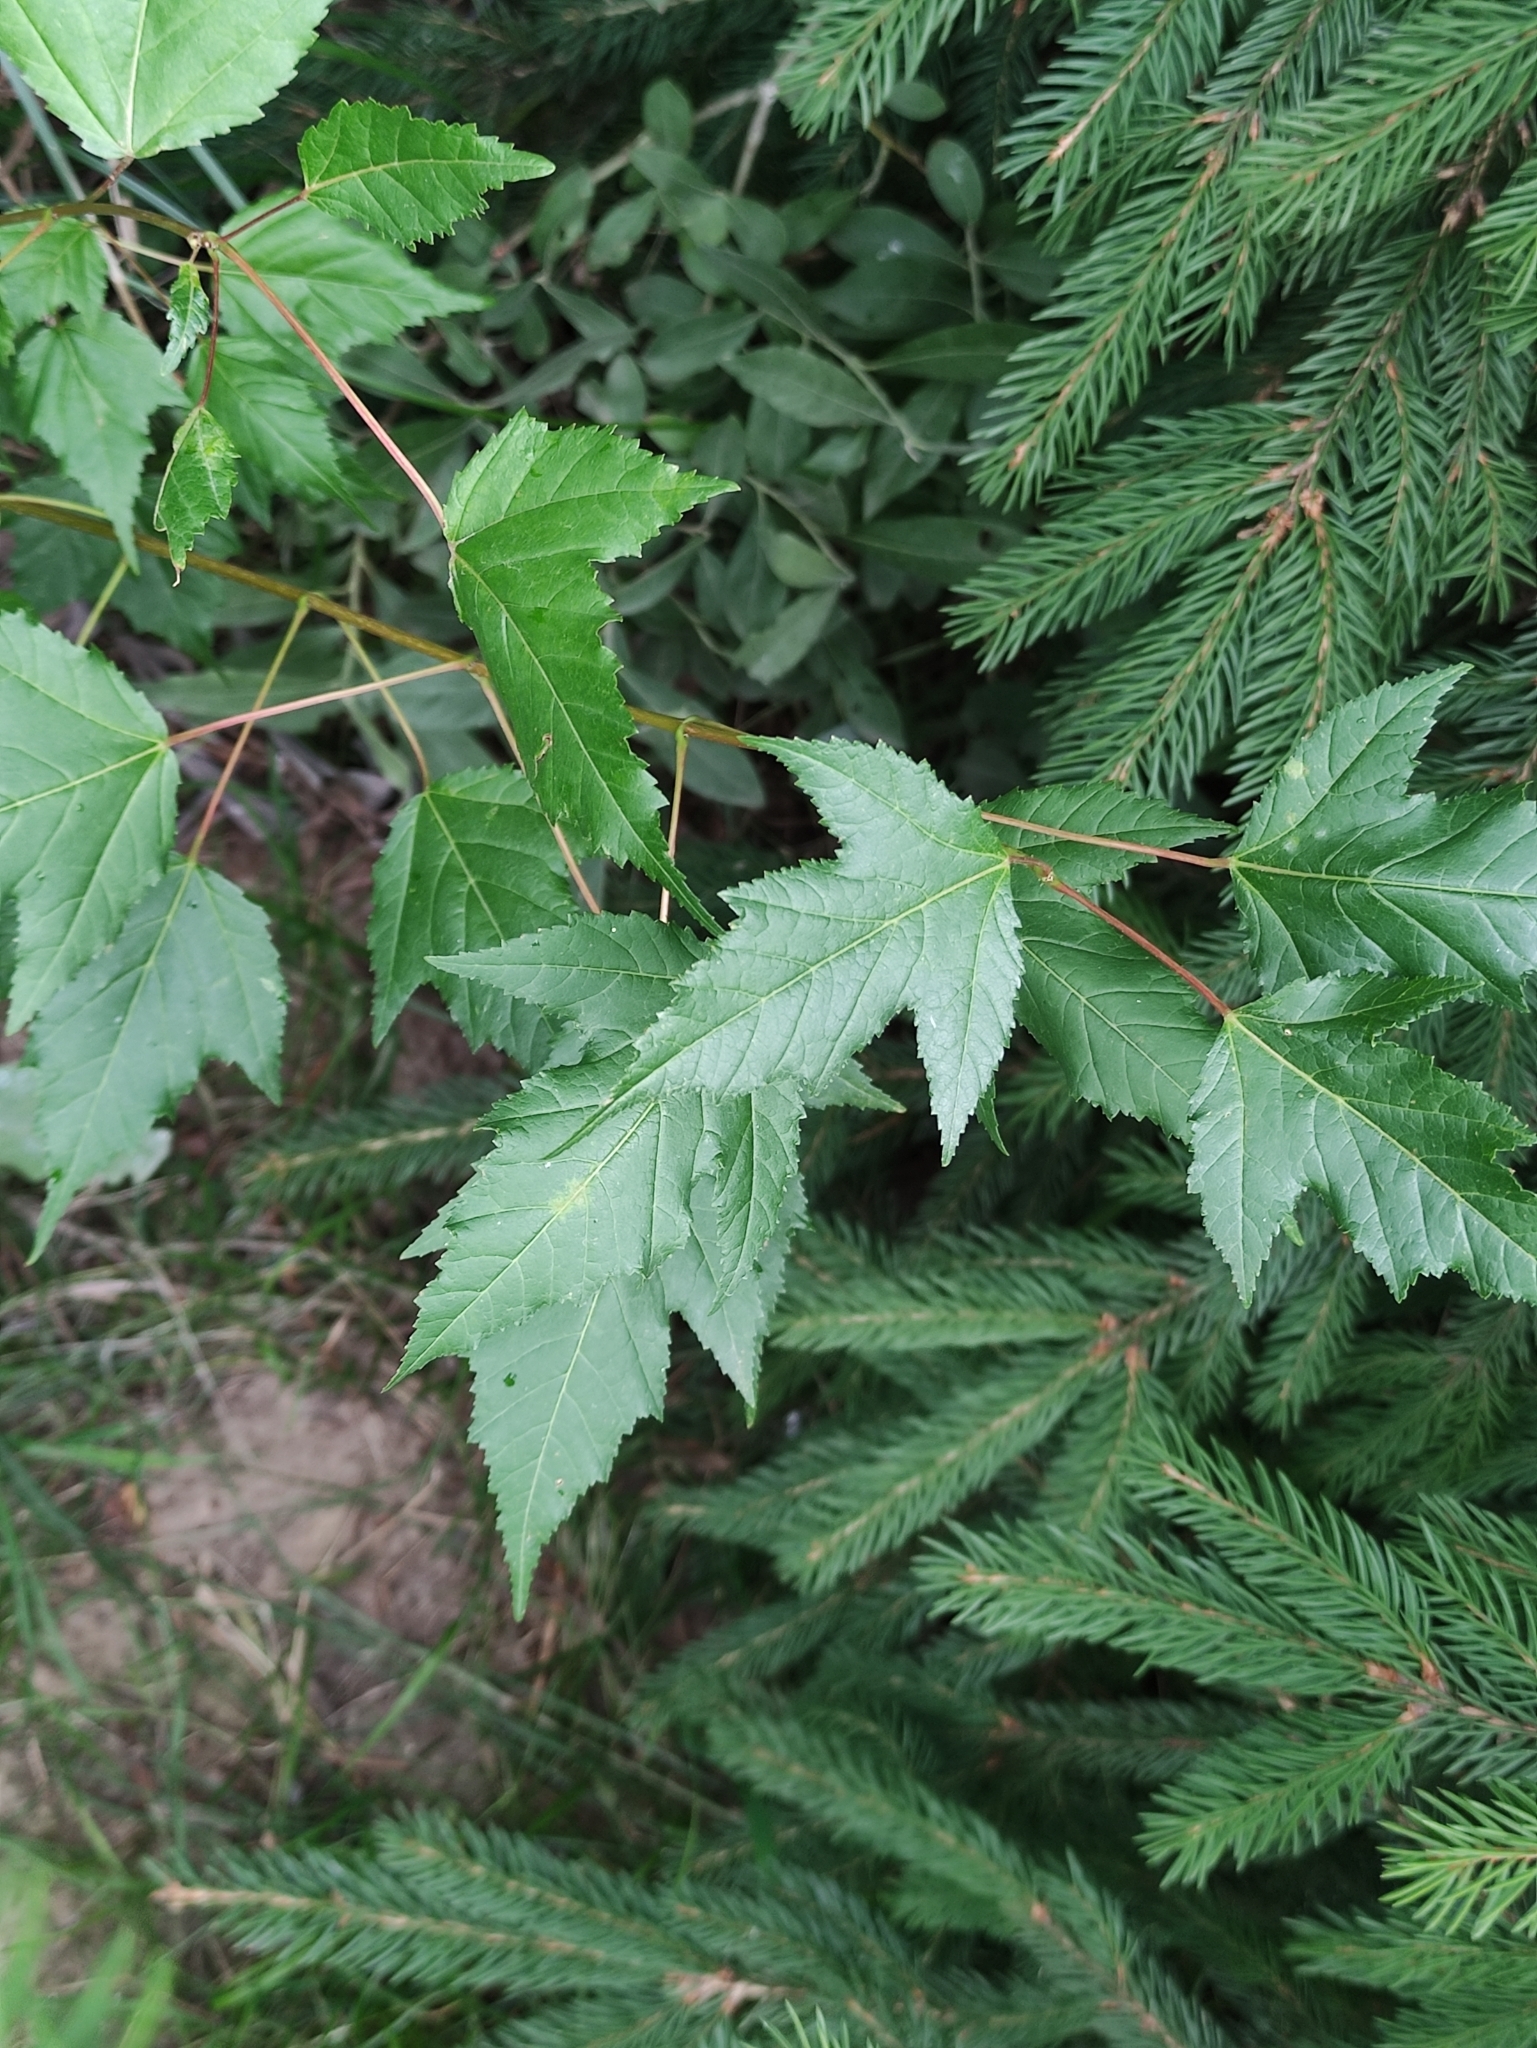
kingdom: Plantae
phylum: Tracheophyta
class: Magnoliopsida
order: Sapindales
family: Sapindaceae
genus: Acer
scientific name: Acer tataricum
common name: Tartar maple
